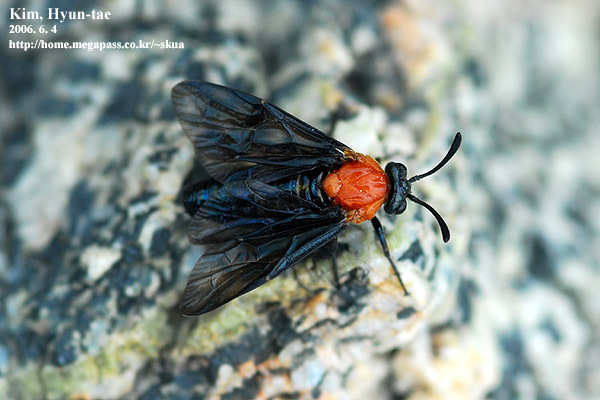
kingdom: Animalia
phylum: Arthropoda
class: Insecta
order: Hymenoptera
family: Argidae
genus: Arge
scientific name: Arge captiva
